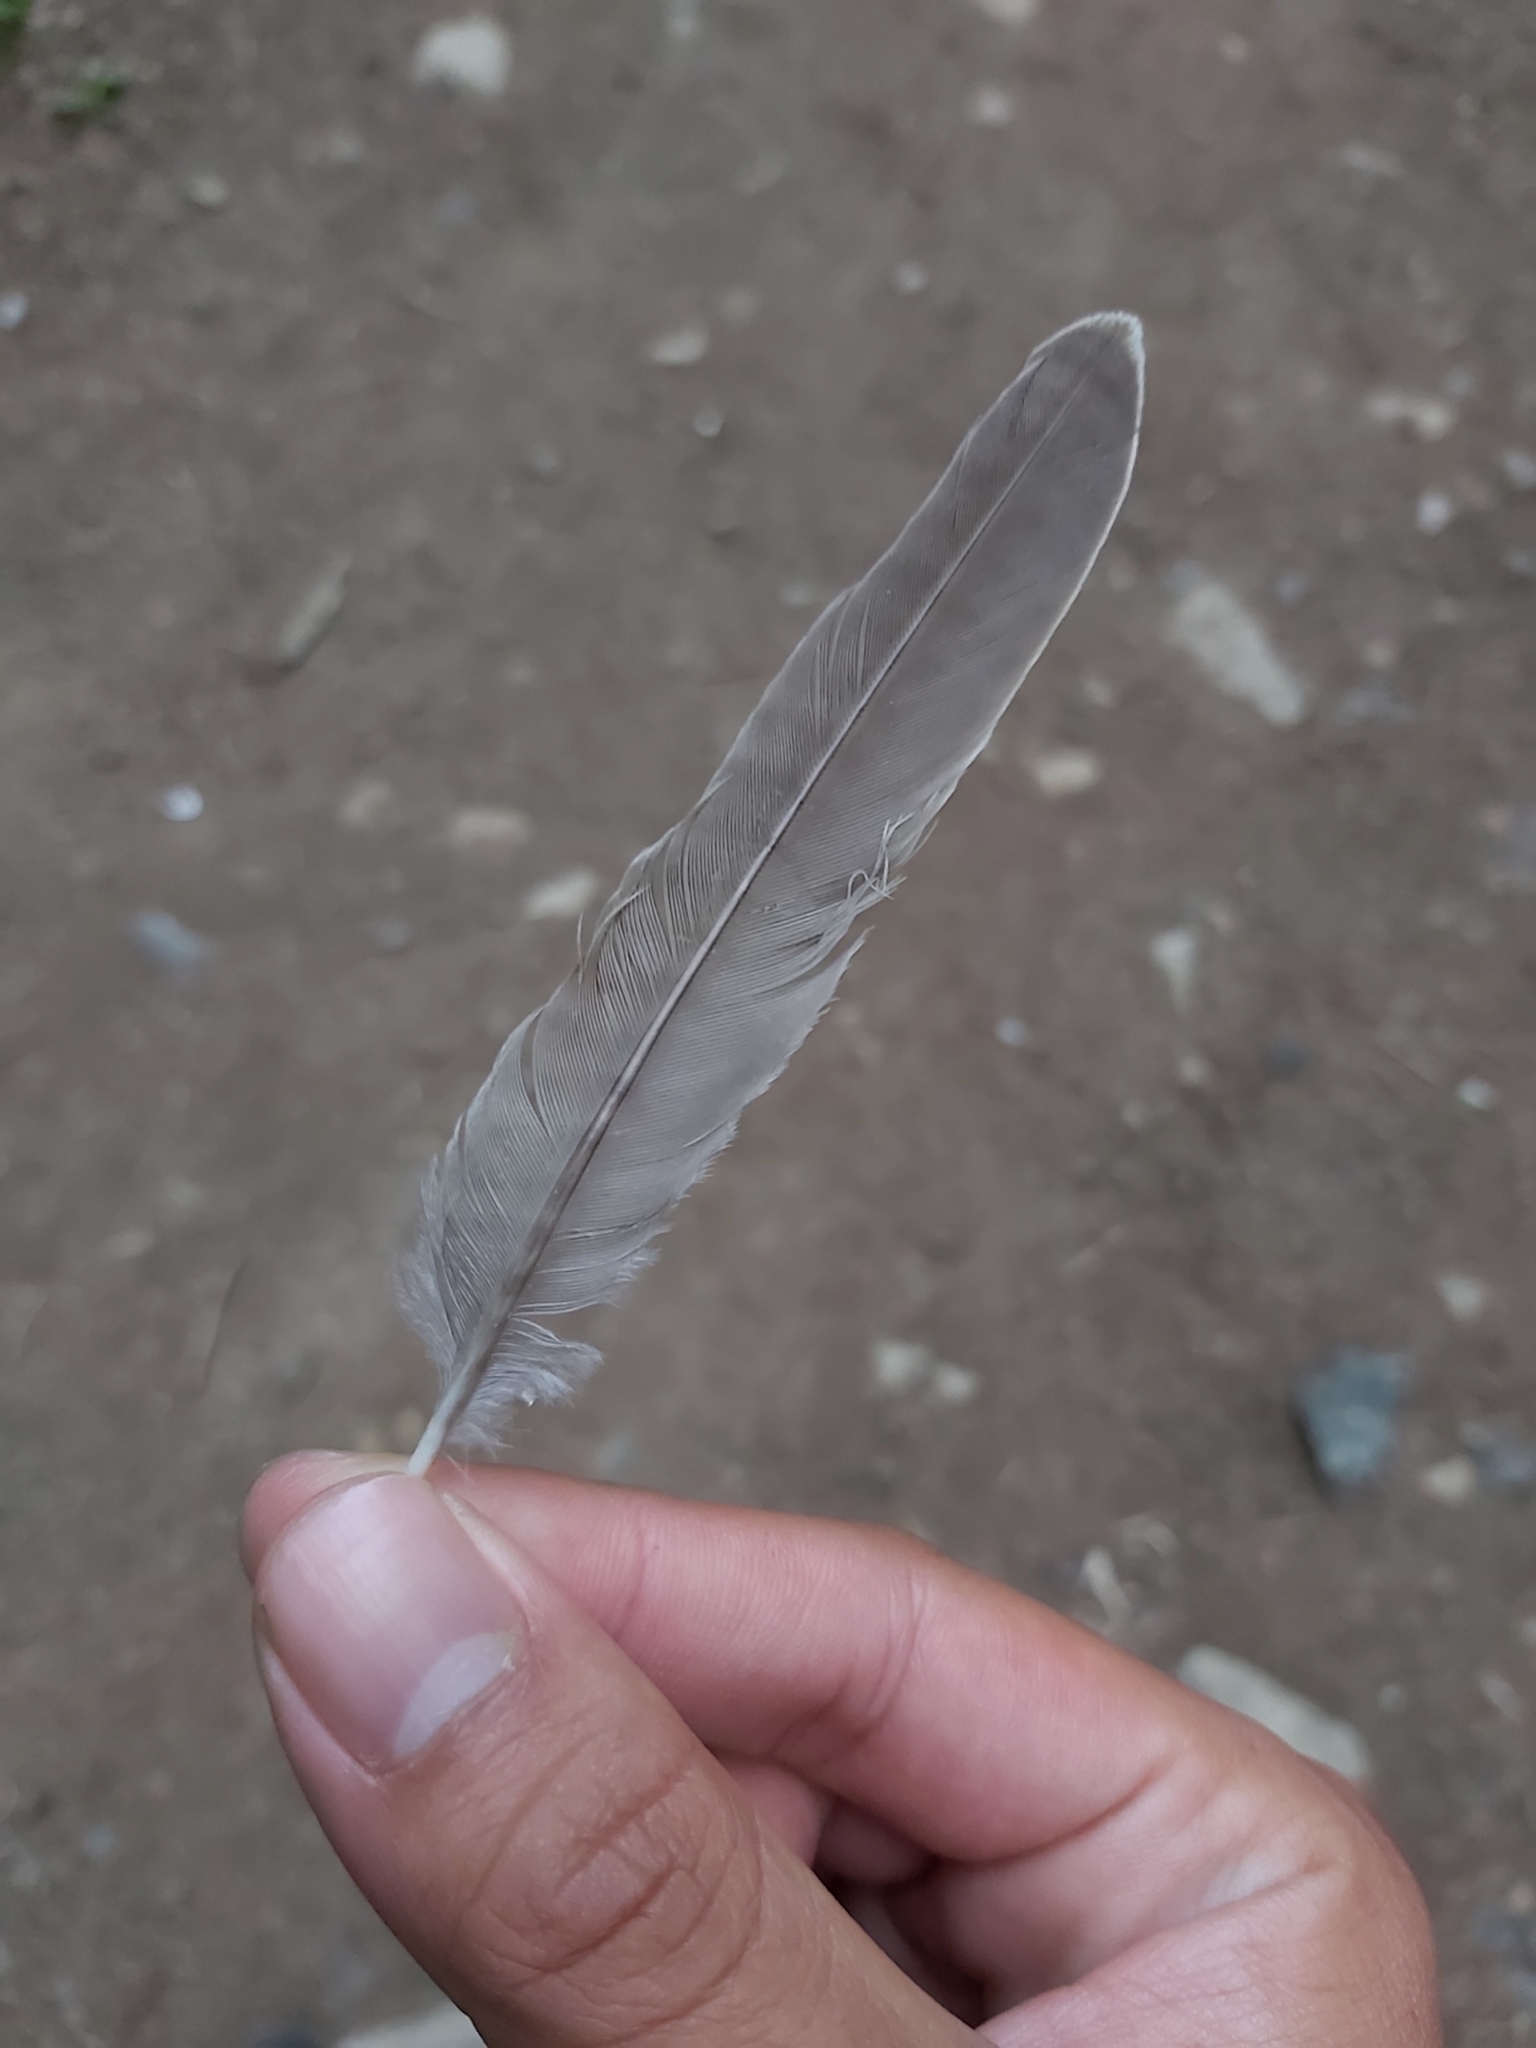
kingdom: Animalia
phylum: Chordata
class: Aves
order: Passeriformes
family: Turdidae
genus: Turdus
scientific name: Turdus viscivorus
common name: Mistle thrush
